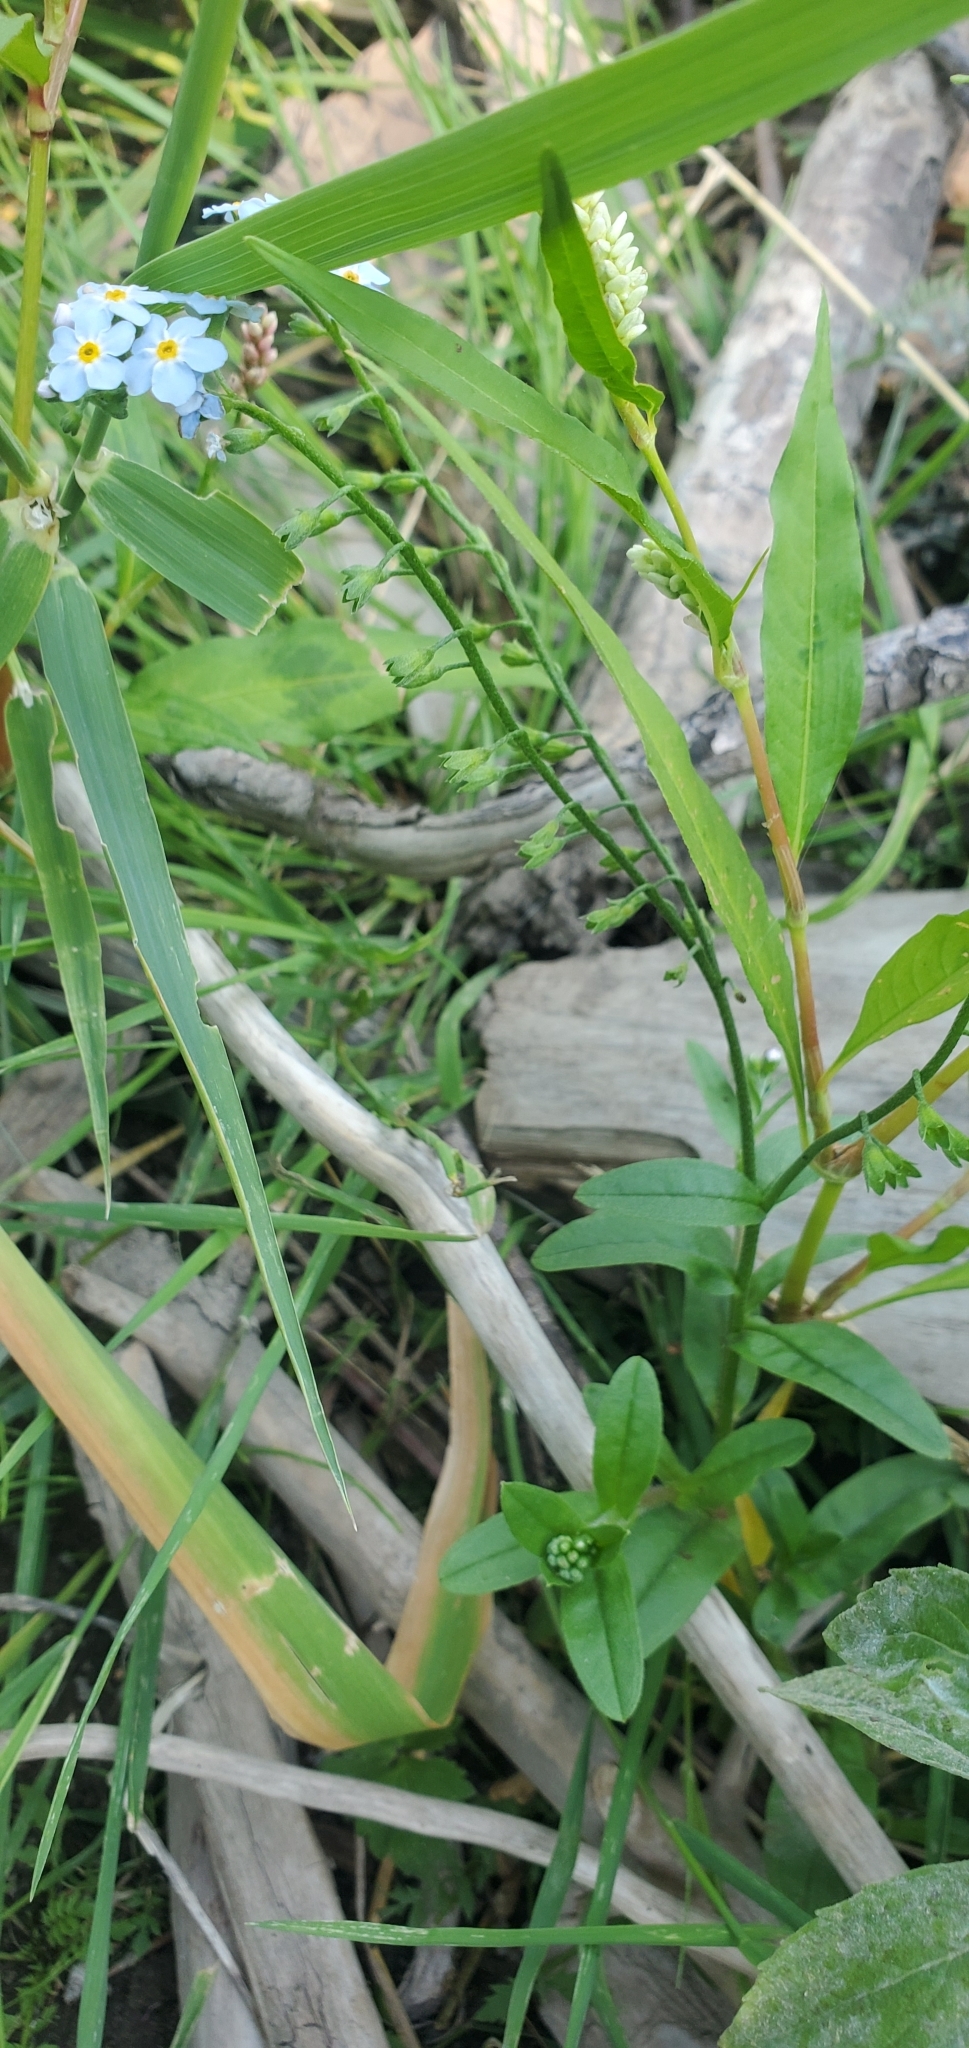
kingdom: Plantae
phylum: Tracheophyta
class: Magnoliopsida
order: Boraginales
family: Boraginaceae
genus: Myosotis
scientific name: Myosotis scorpioides
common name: Water forget-me-not
